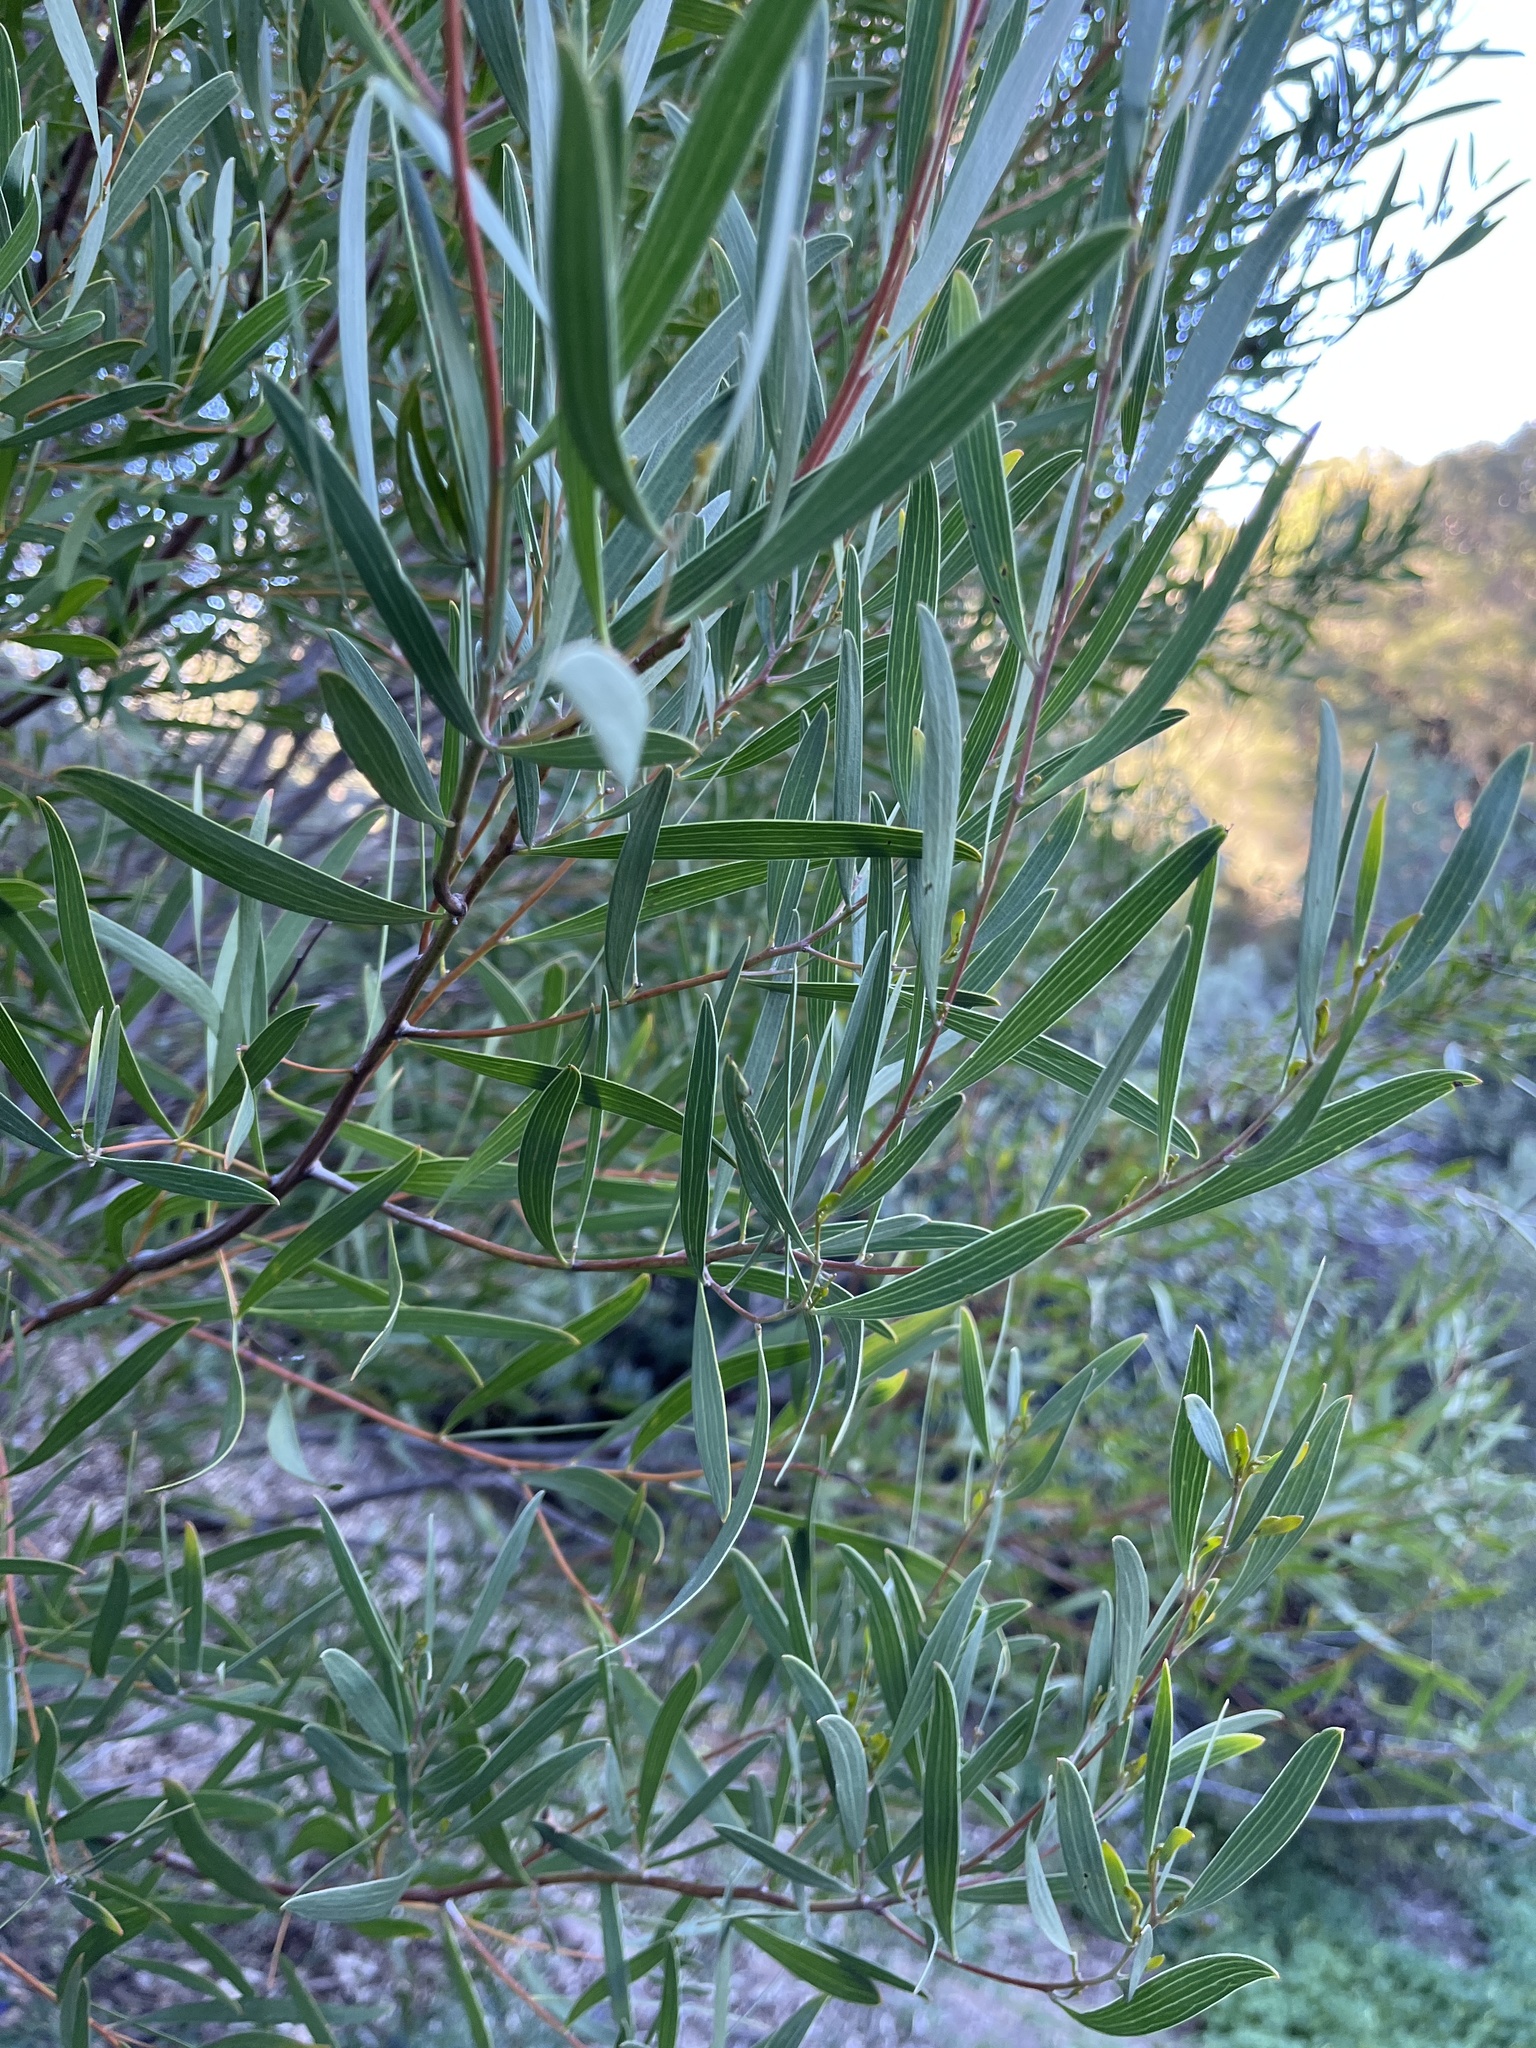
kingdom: Plantae
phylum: Tracheophyta
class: Magnoliopsida
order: Fabales
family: Fabaceae
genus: Acacia
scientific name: Acacia cyclops
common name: Coastal wattle
